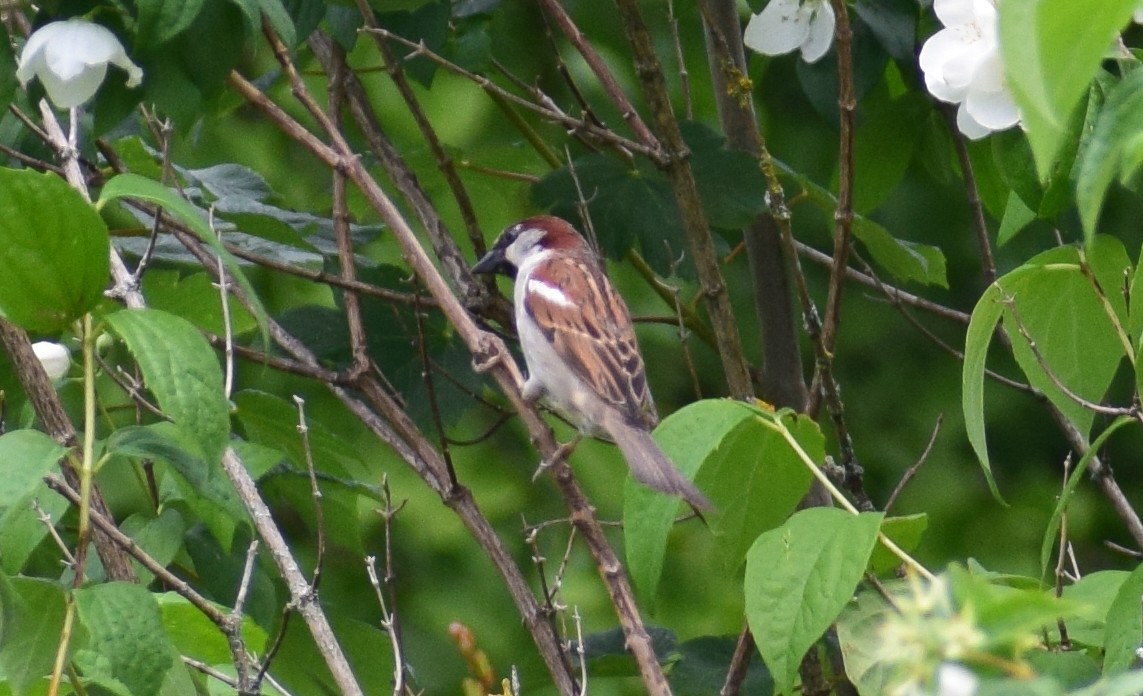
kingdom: Animalia
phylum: Chordata
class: Aves
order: Passeriformes
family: Passeridae
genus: Passer
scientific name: Passer domesticus
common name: House sparrow
